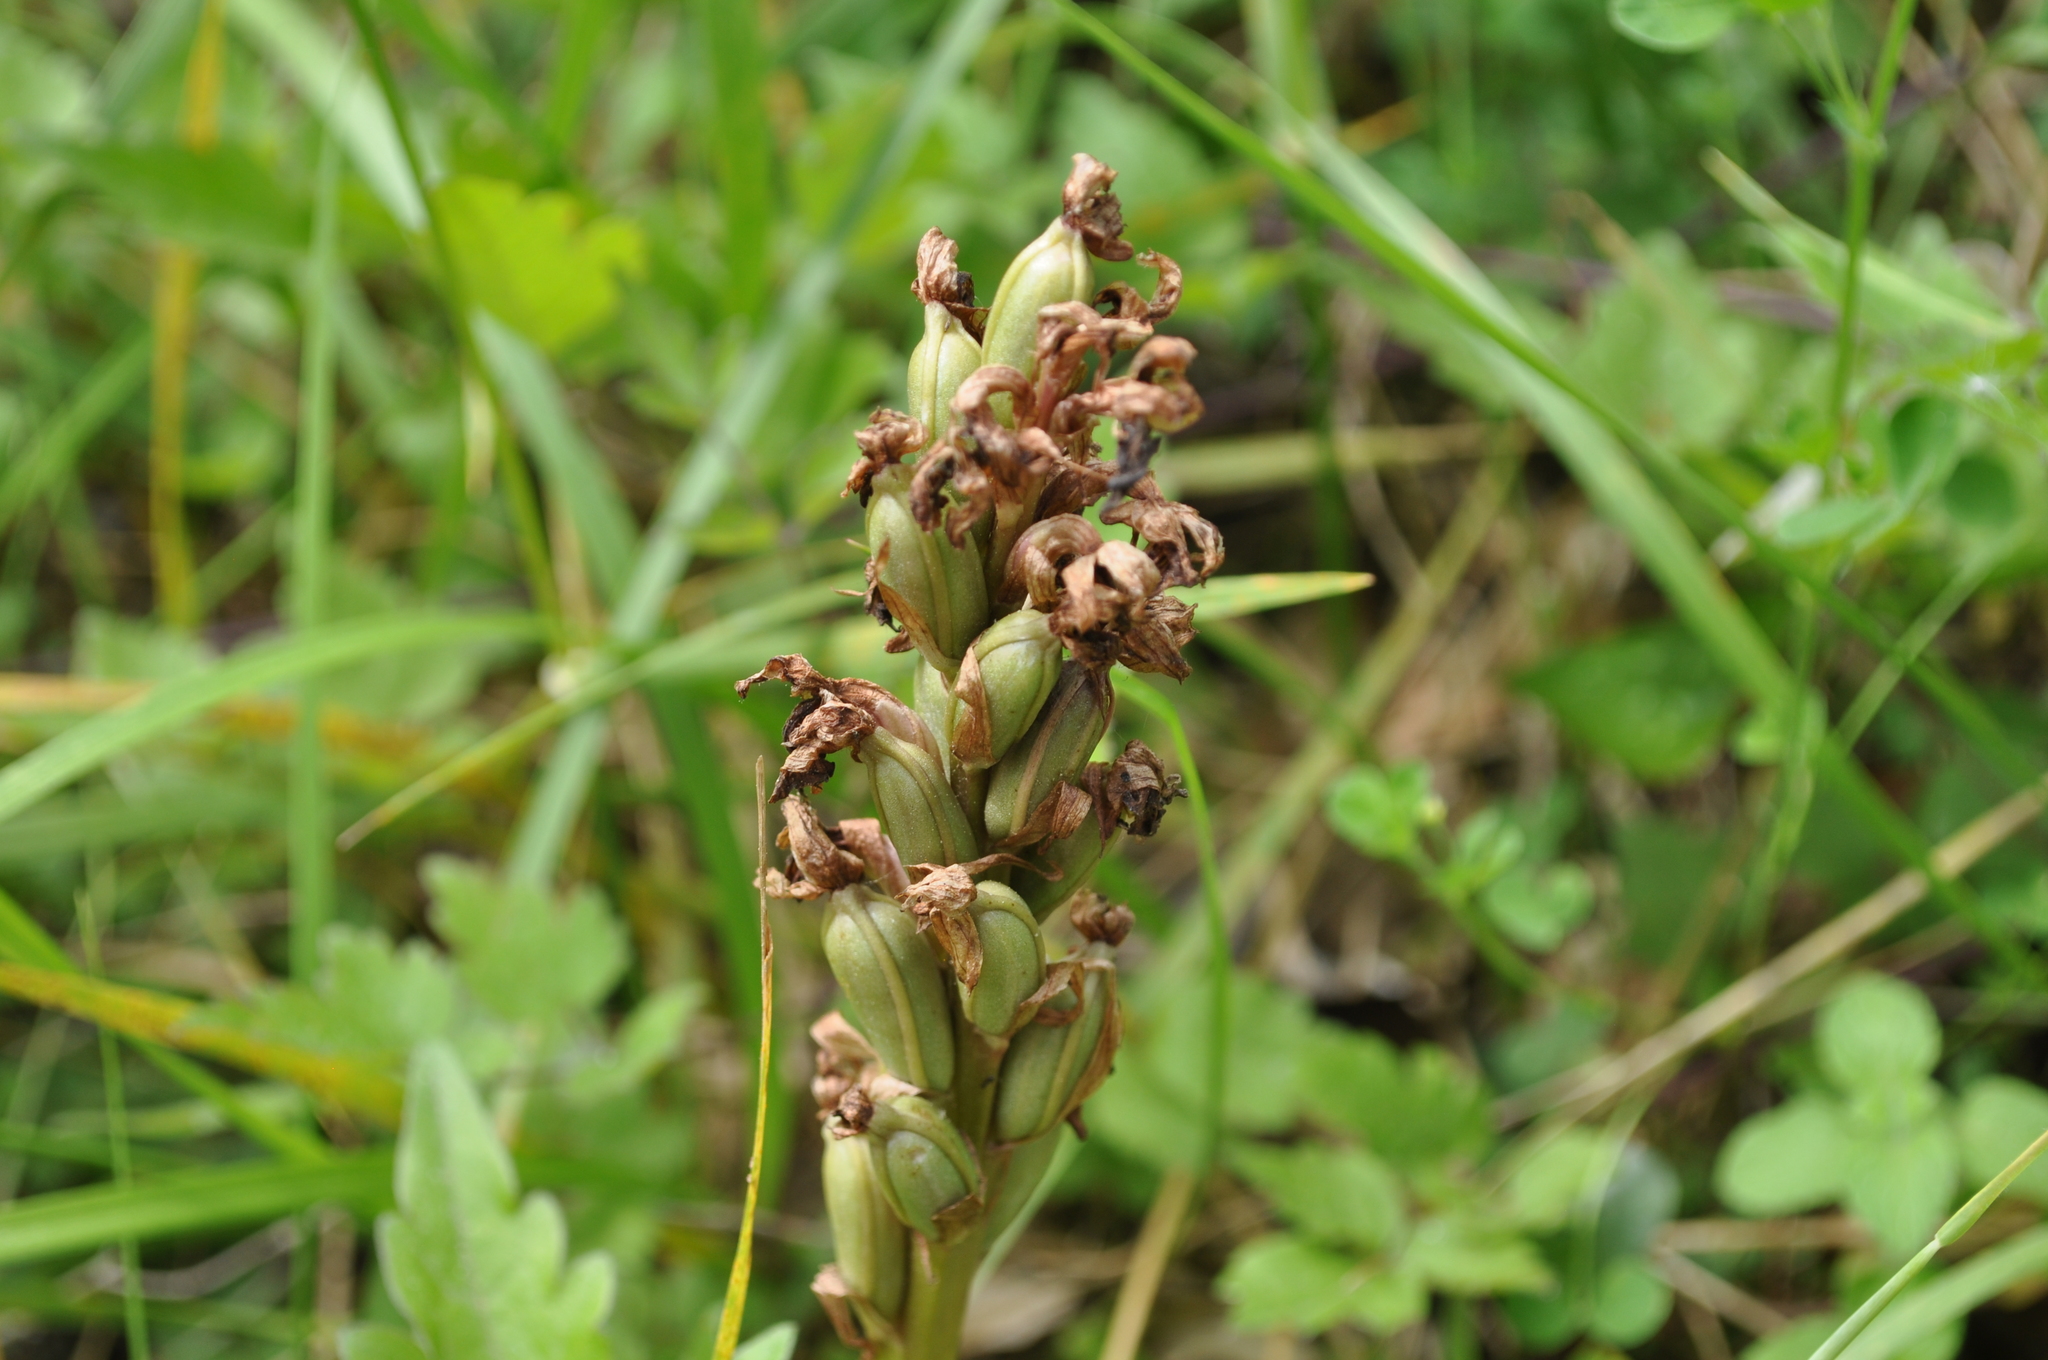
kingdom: Plantae
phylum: Tracheophyta
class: Liliopsida
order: Asparagales
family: Orchidaceae
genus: Himantoglossum
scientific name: Himantoglossum robertianum
